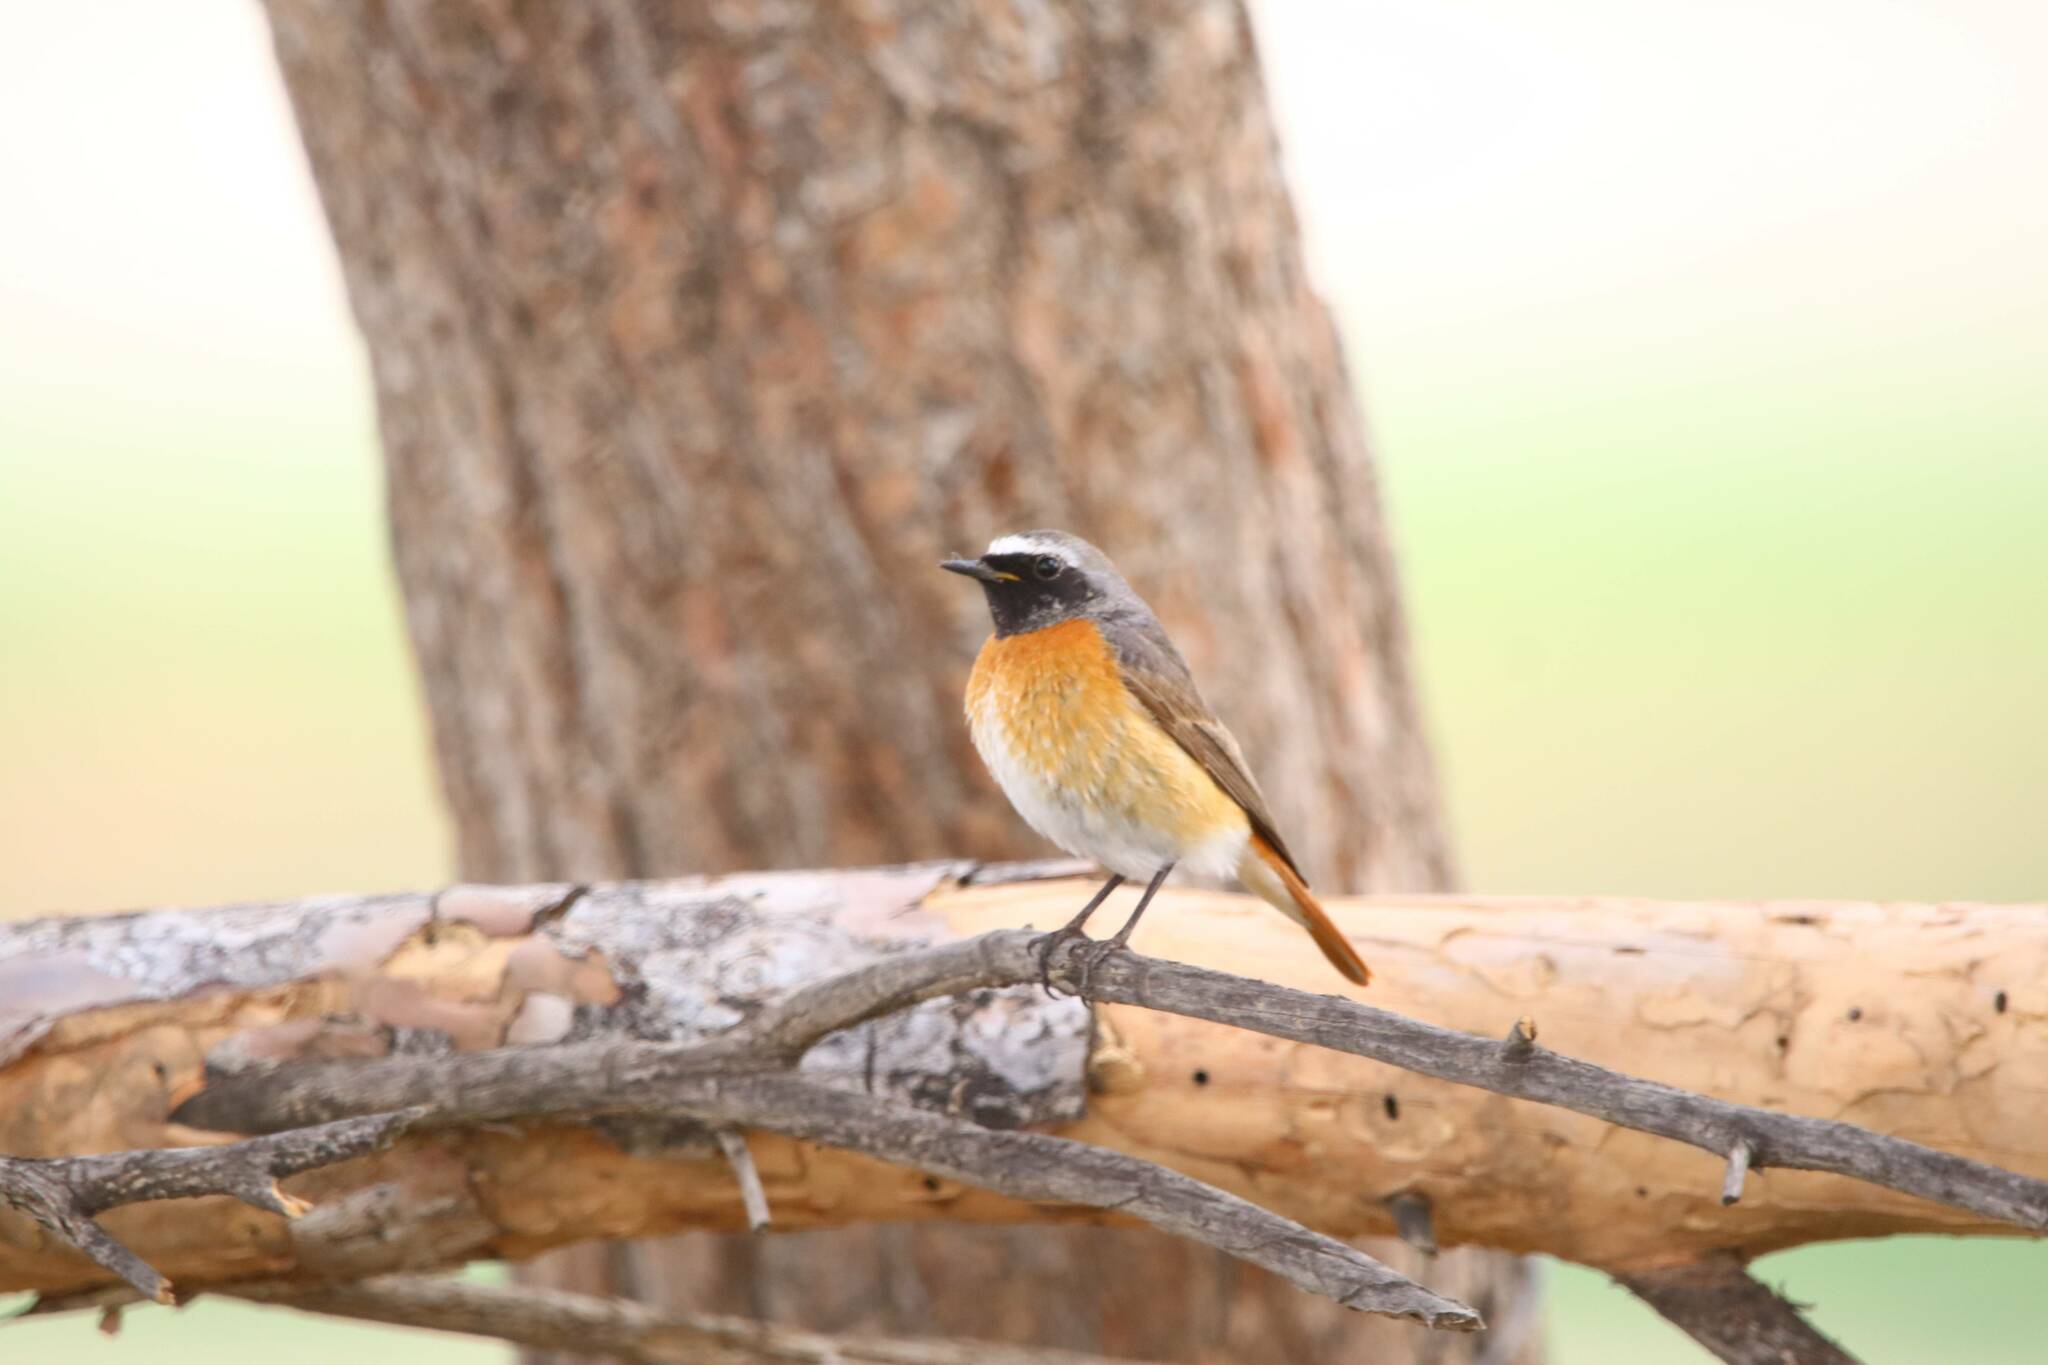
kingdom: Animalia
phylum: Chordata
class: Aves
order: Passeriformes
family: Muscicapidae
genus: Phoenicurus
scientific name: Phoenicurus phoenicurus
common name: Common redstart
